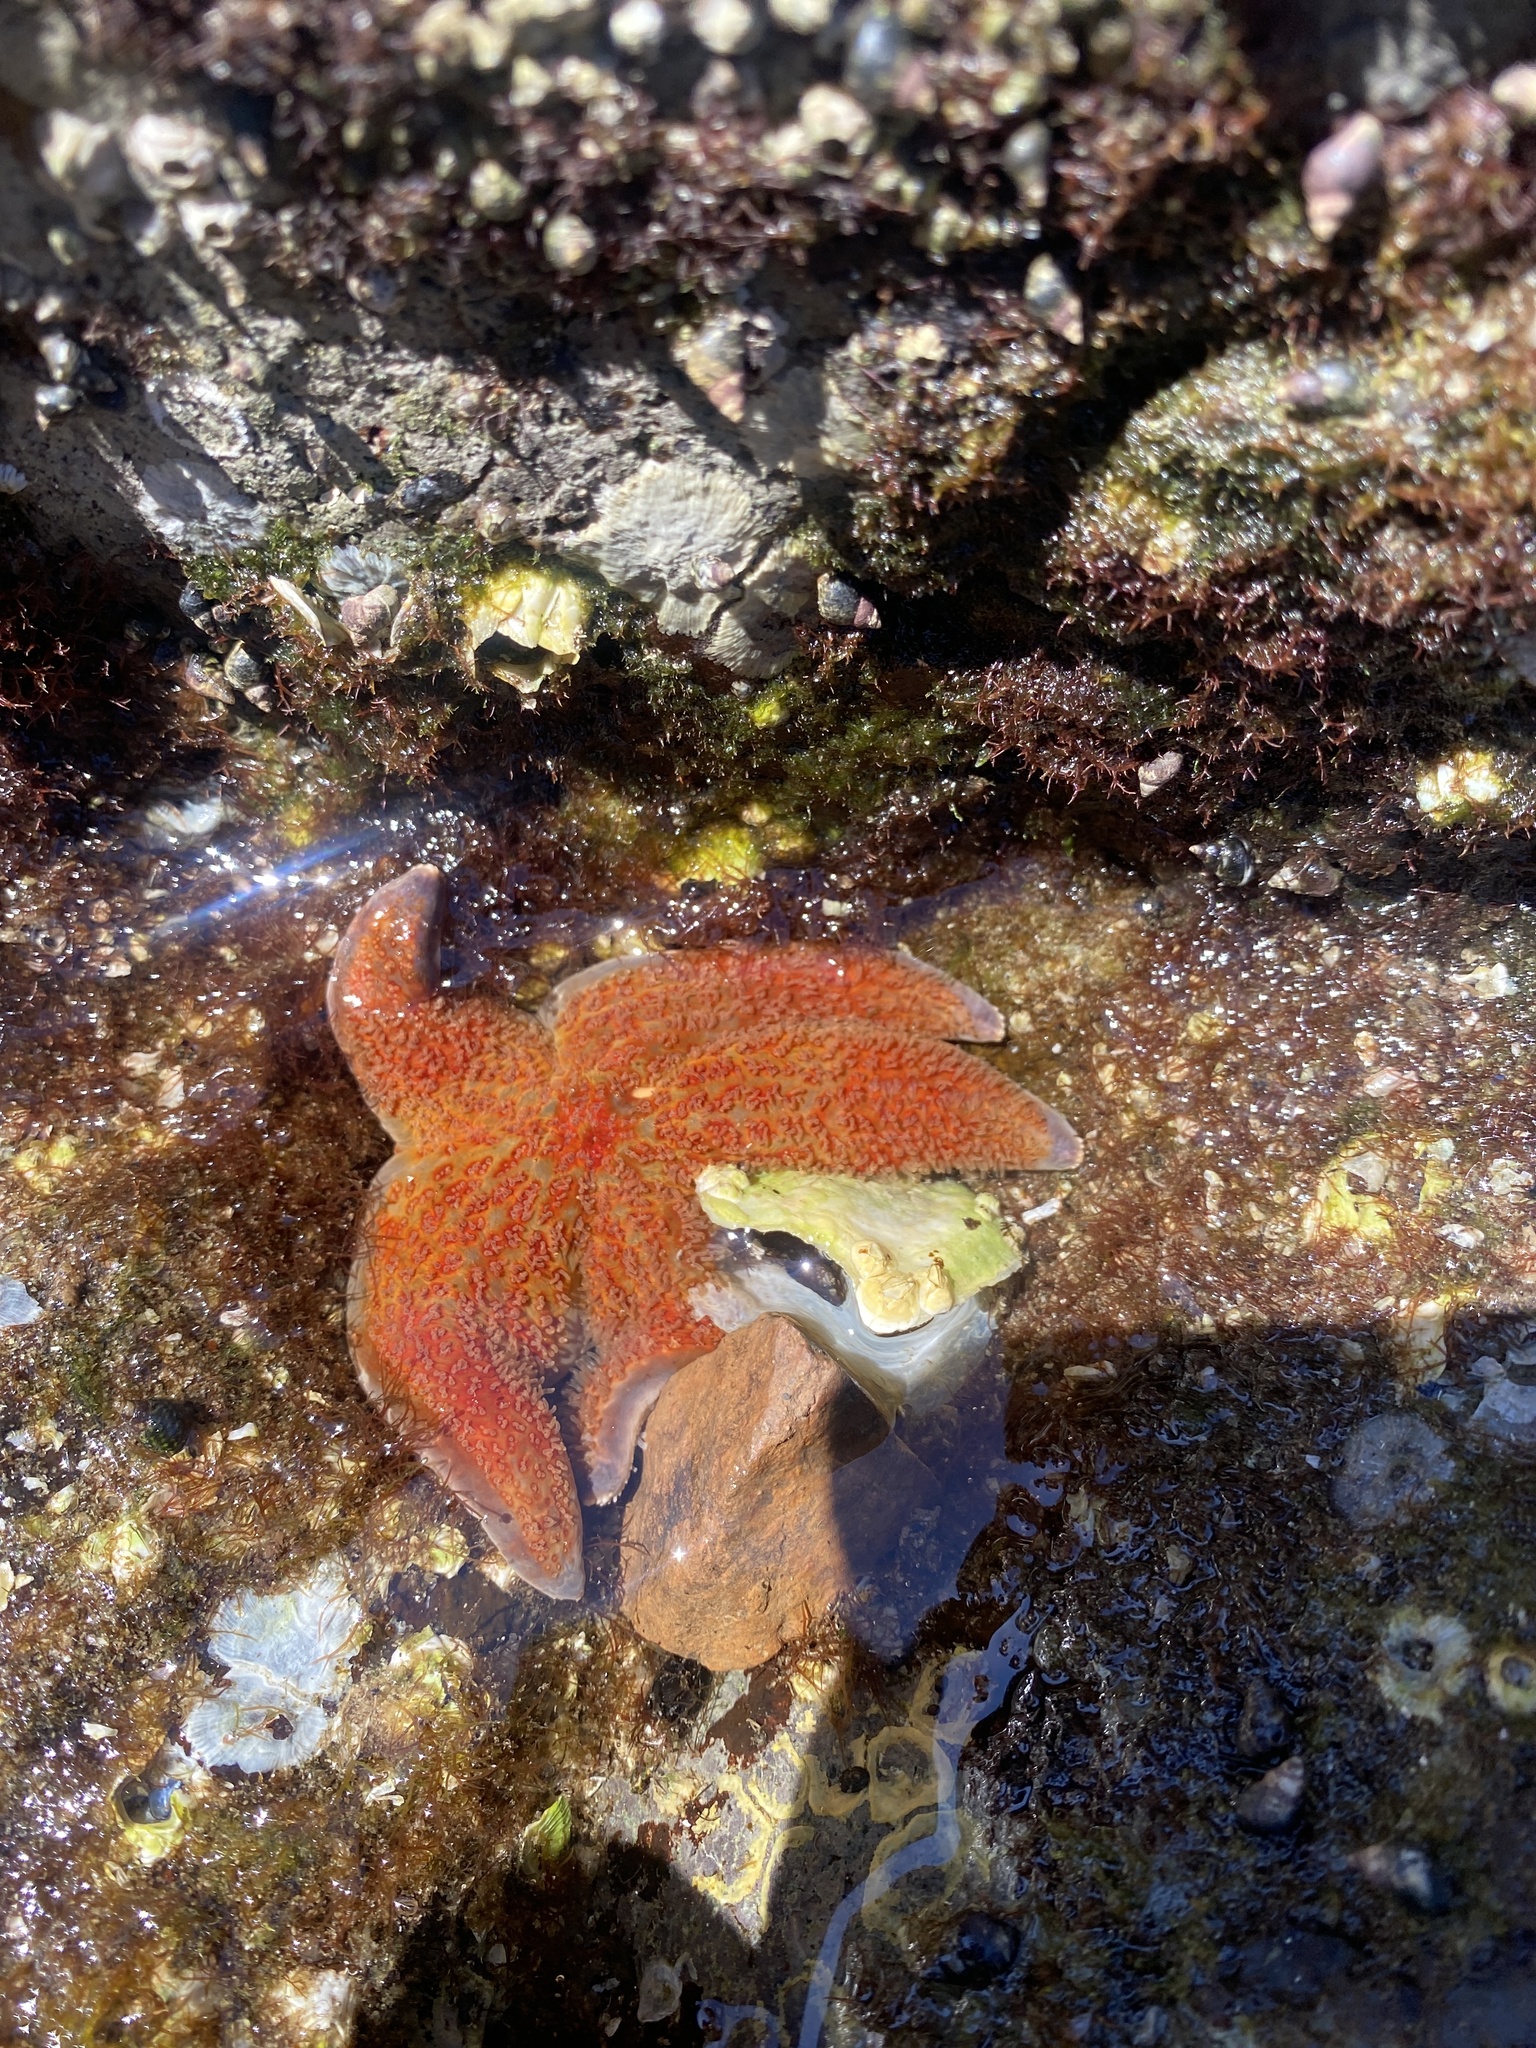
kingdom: Animalia
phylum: Echinodermata
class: Asteroidea
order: Valvatida
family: Asteropseidae
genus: Dermasterias
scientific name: Dermasterias imbricata
